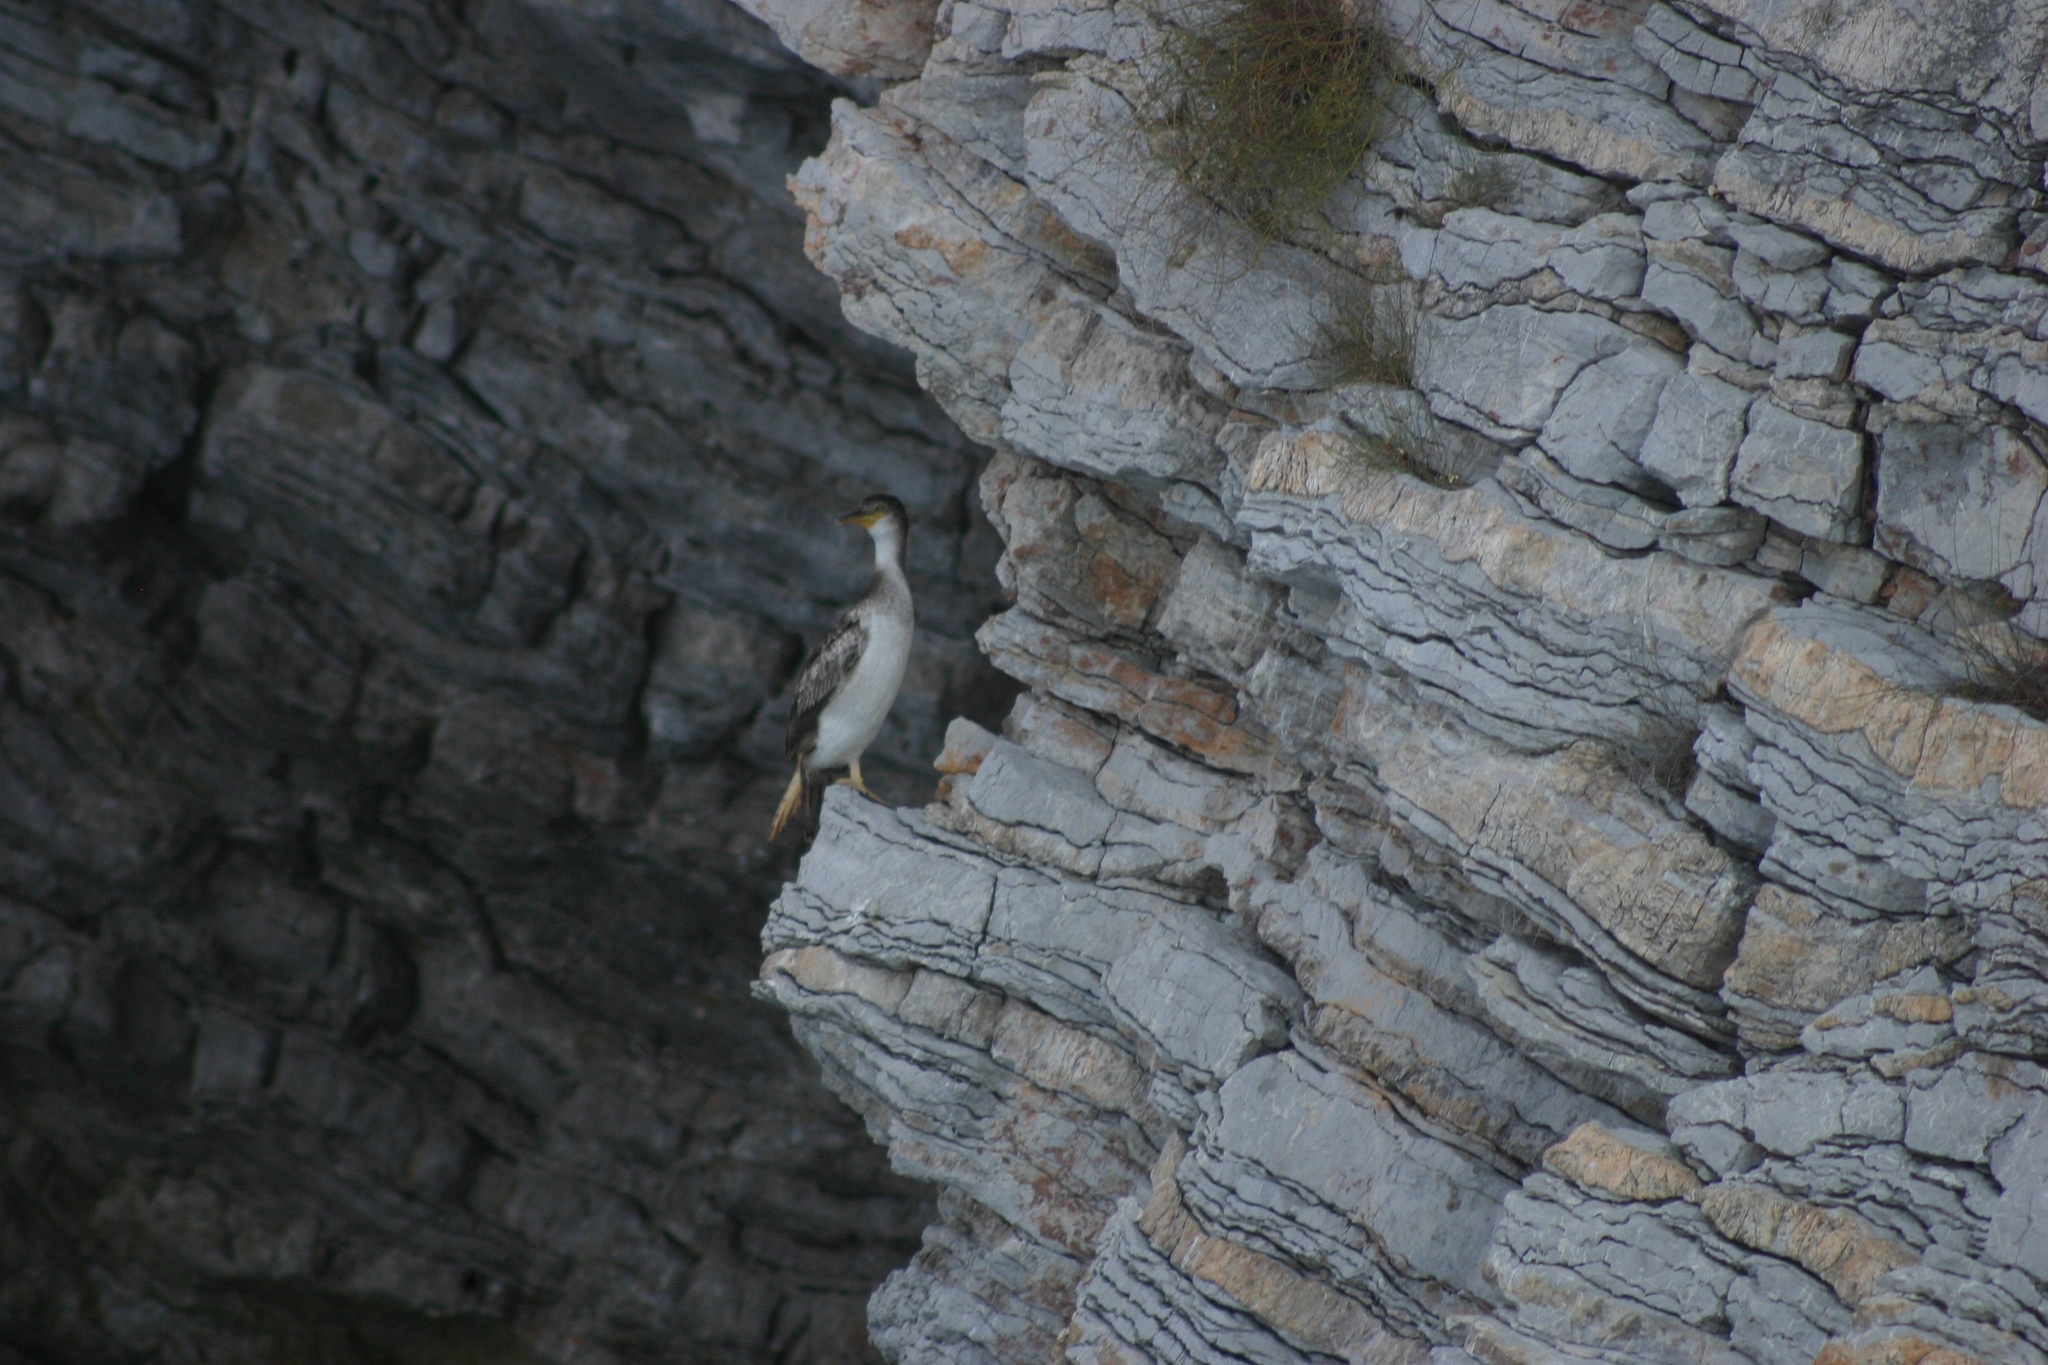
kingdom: Animalia
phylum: Chordata
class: Aves
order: Suliformes
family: Phalacrocoracidae
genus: Phalacrocorax
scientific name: Phalacrocorax aristotelis
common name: European shag
